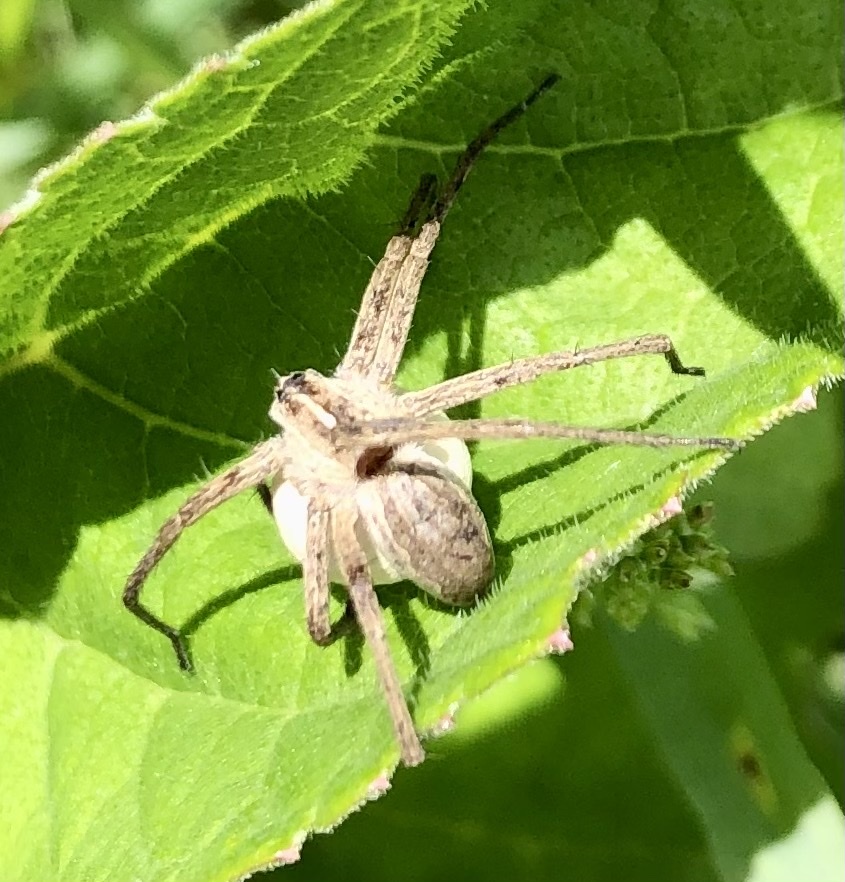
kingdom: Animalia
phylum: Arthropoda
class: Arachnida
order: Araneae
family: Pisauridae
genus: Pisaura
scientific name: Pisaura mirabilis
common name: Tent spider
